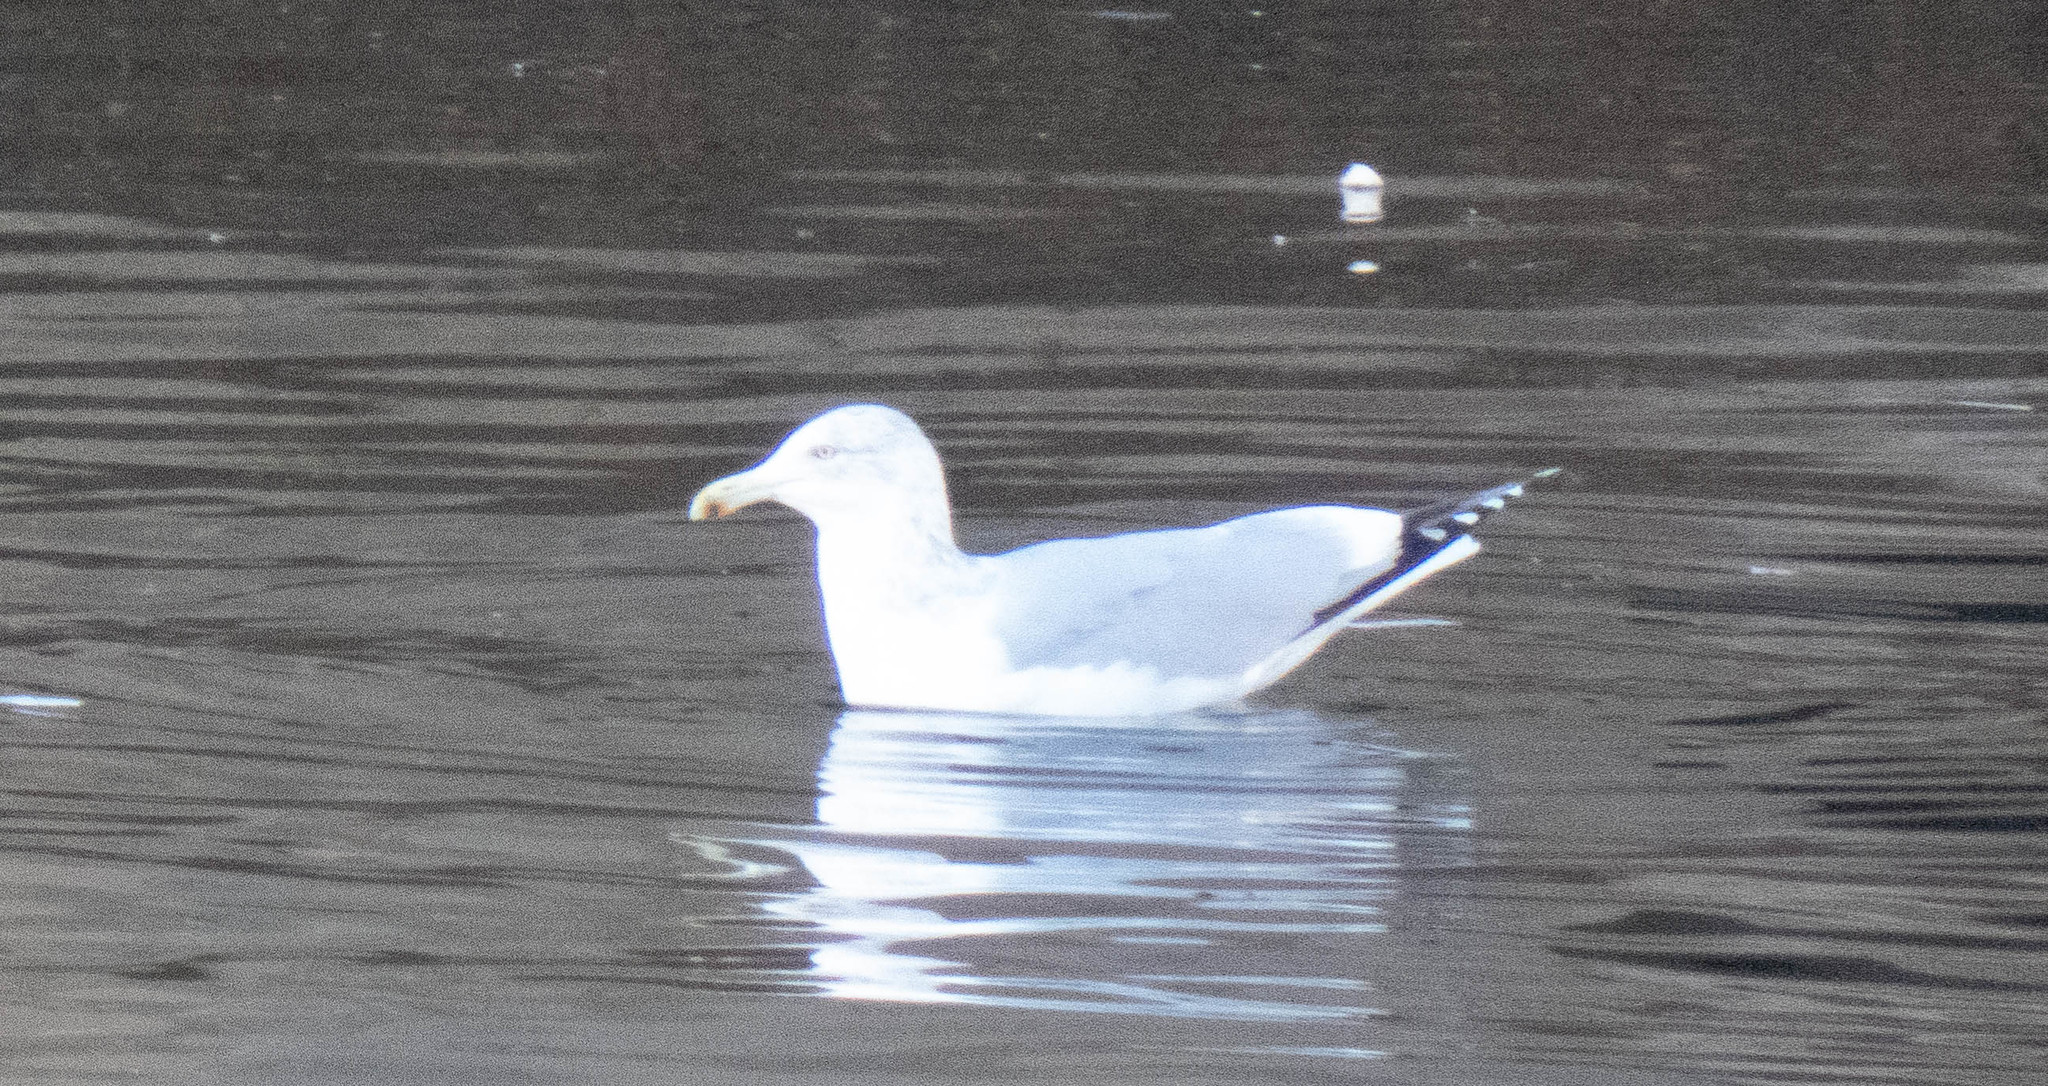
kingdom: Animalia
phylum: Chordata
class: Aves
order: Charadriiformes
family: Laridae
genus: Larus
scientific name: Larus argentatus
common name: Herring gull
